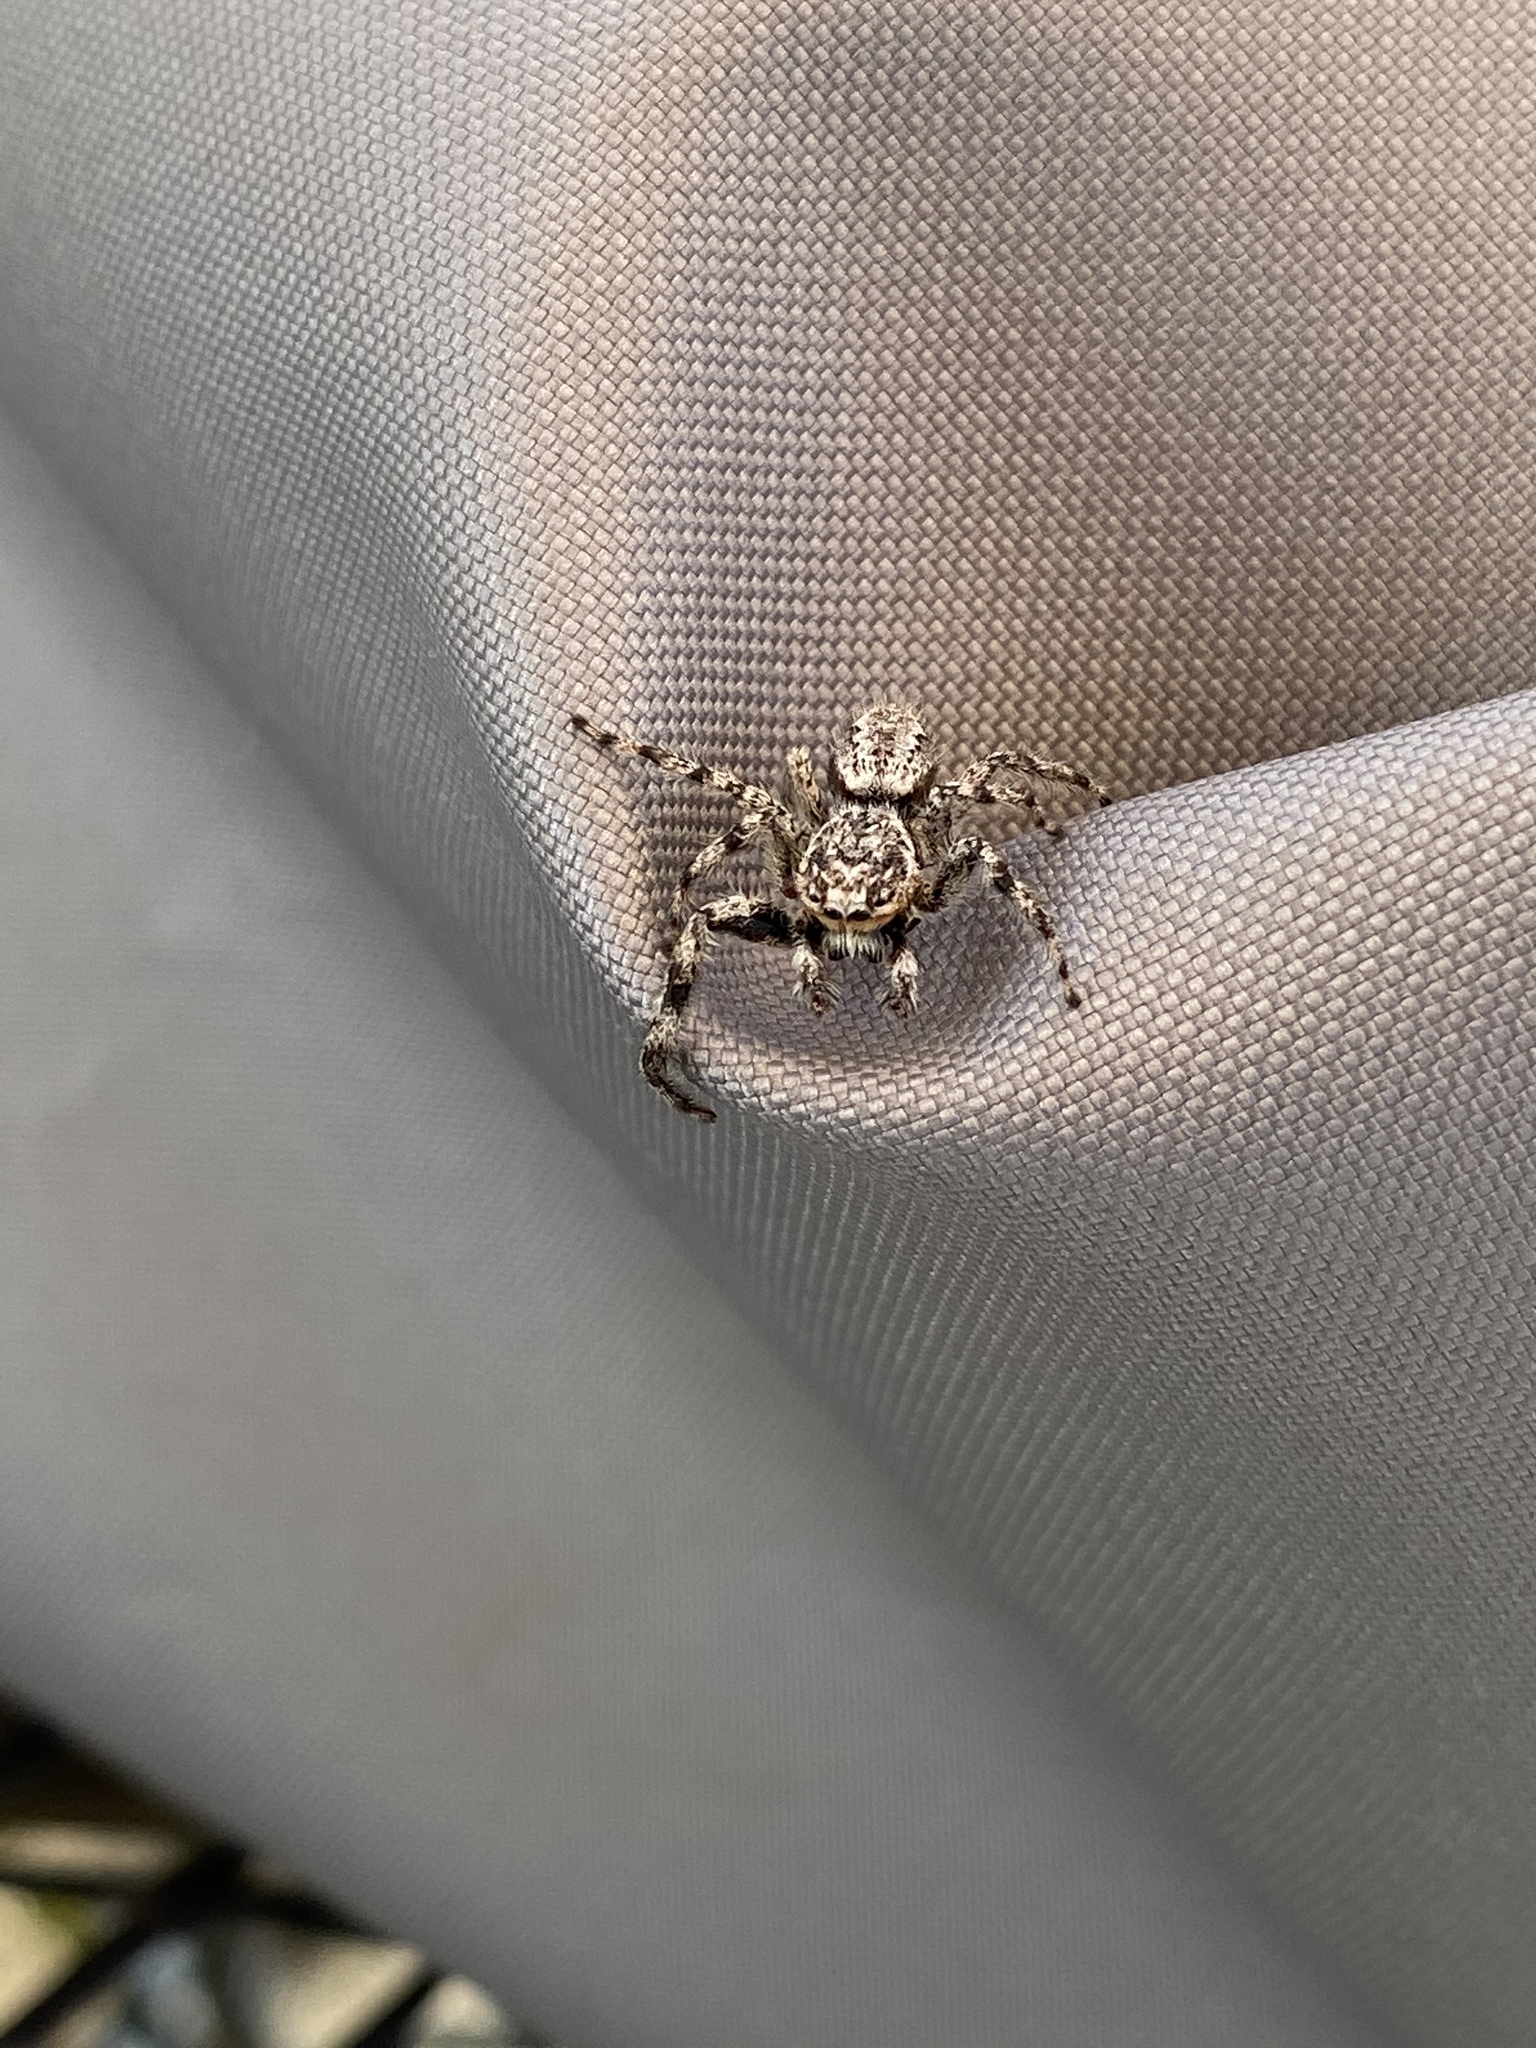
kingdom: Animalia
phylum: Arthropoda
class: Arachnida
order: Araneae
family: Salticidae
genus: Platycryptus
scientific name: Platycryptus undatus
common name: Tan jumping spider
